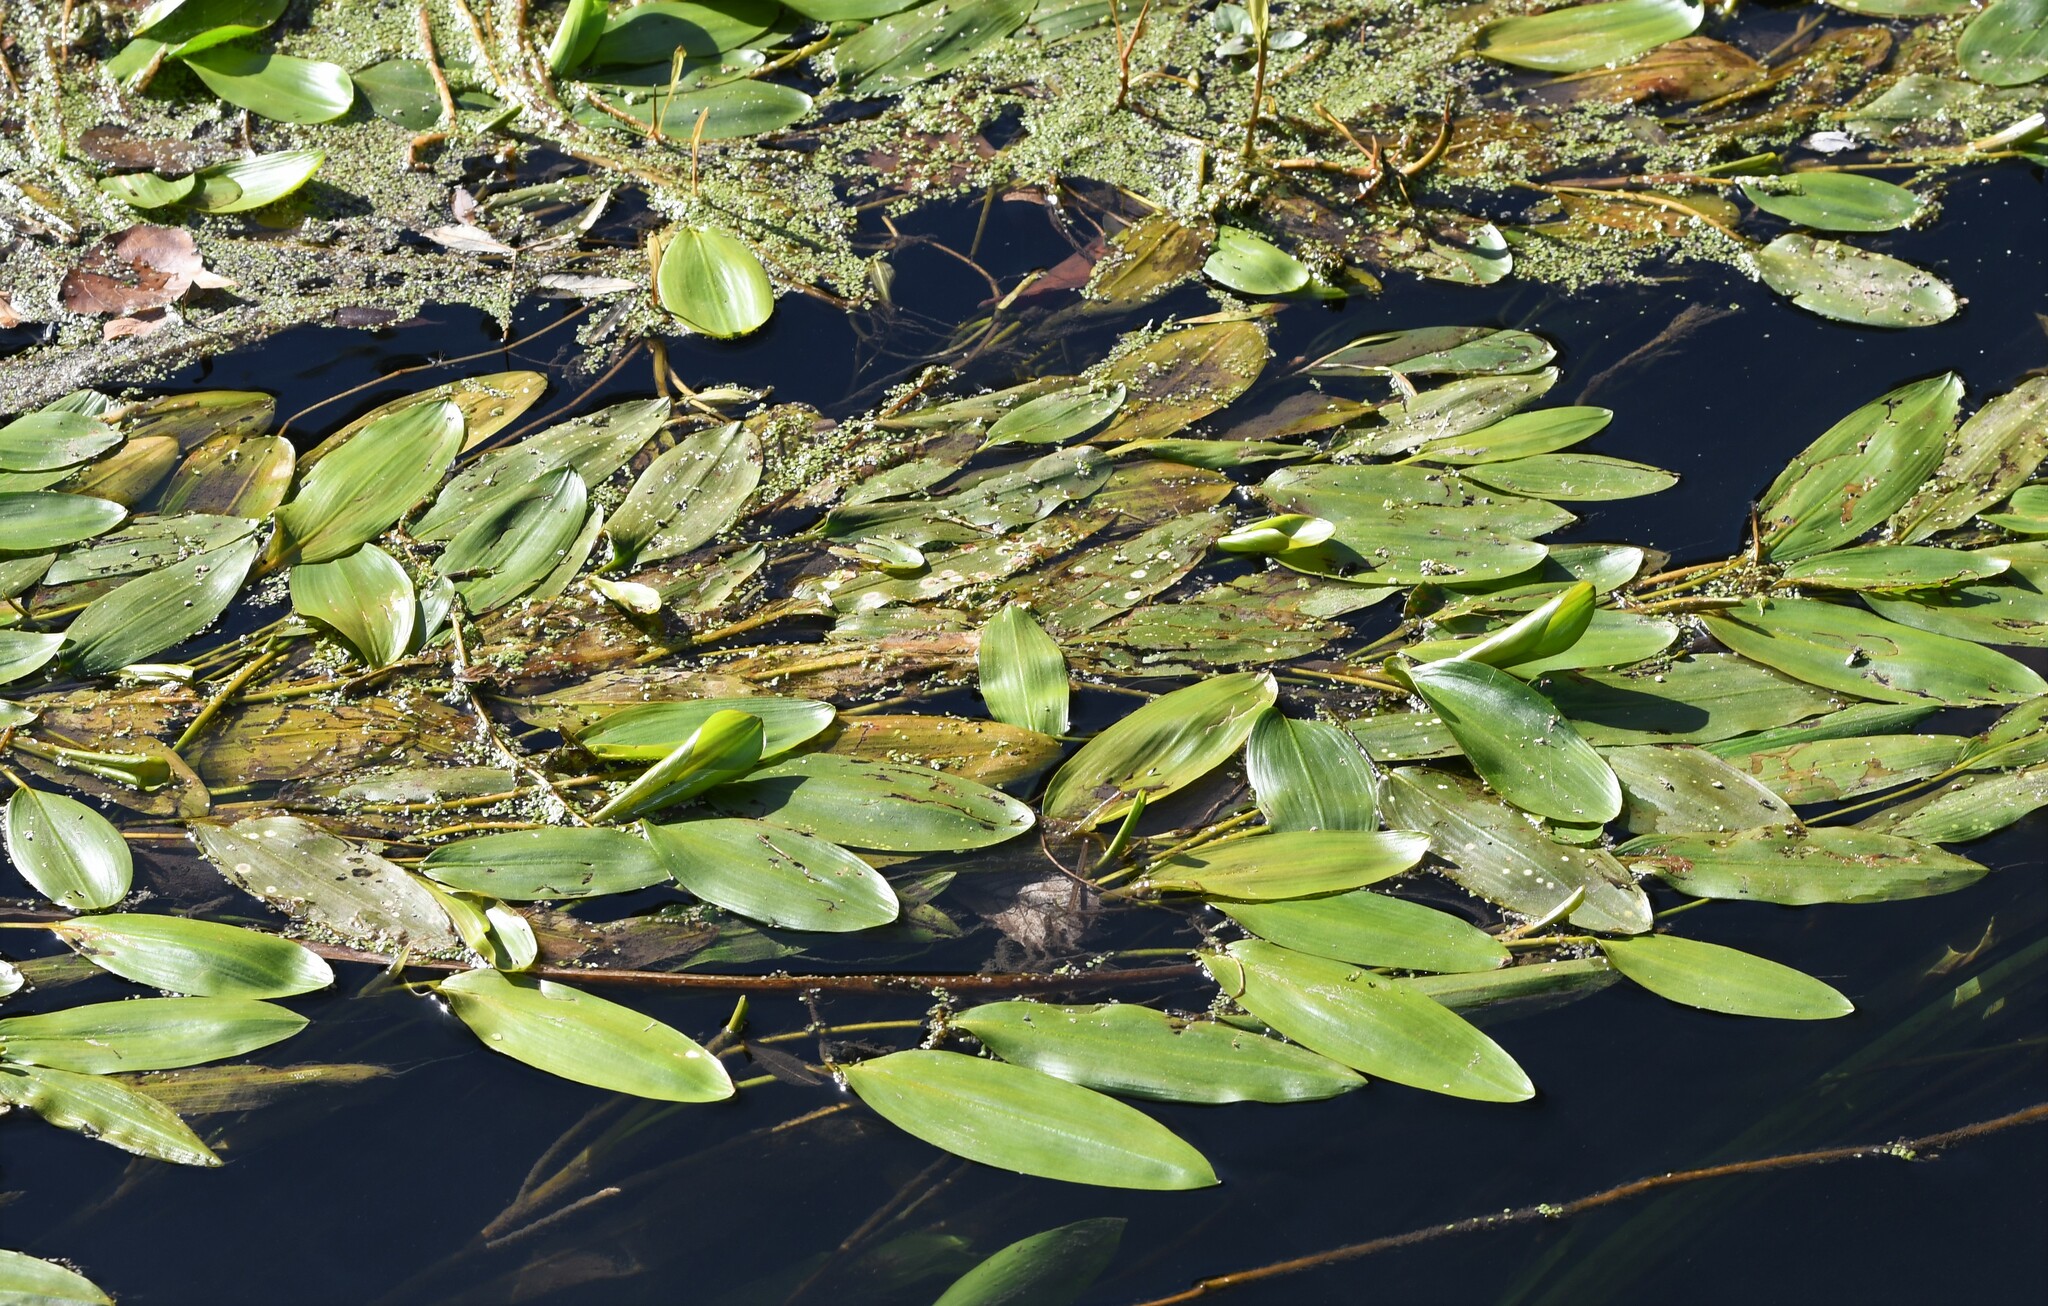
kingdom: Plantae
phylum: Tracheophyta
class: Liliopsida
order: Alismatales
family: Potamogetonaceae
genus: Potamogeton
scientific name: Potamogeton nodosus
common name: Loddon pondweed
